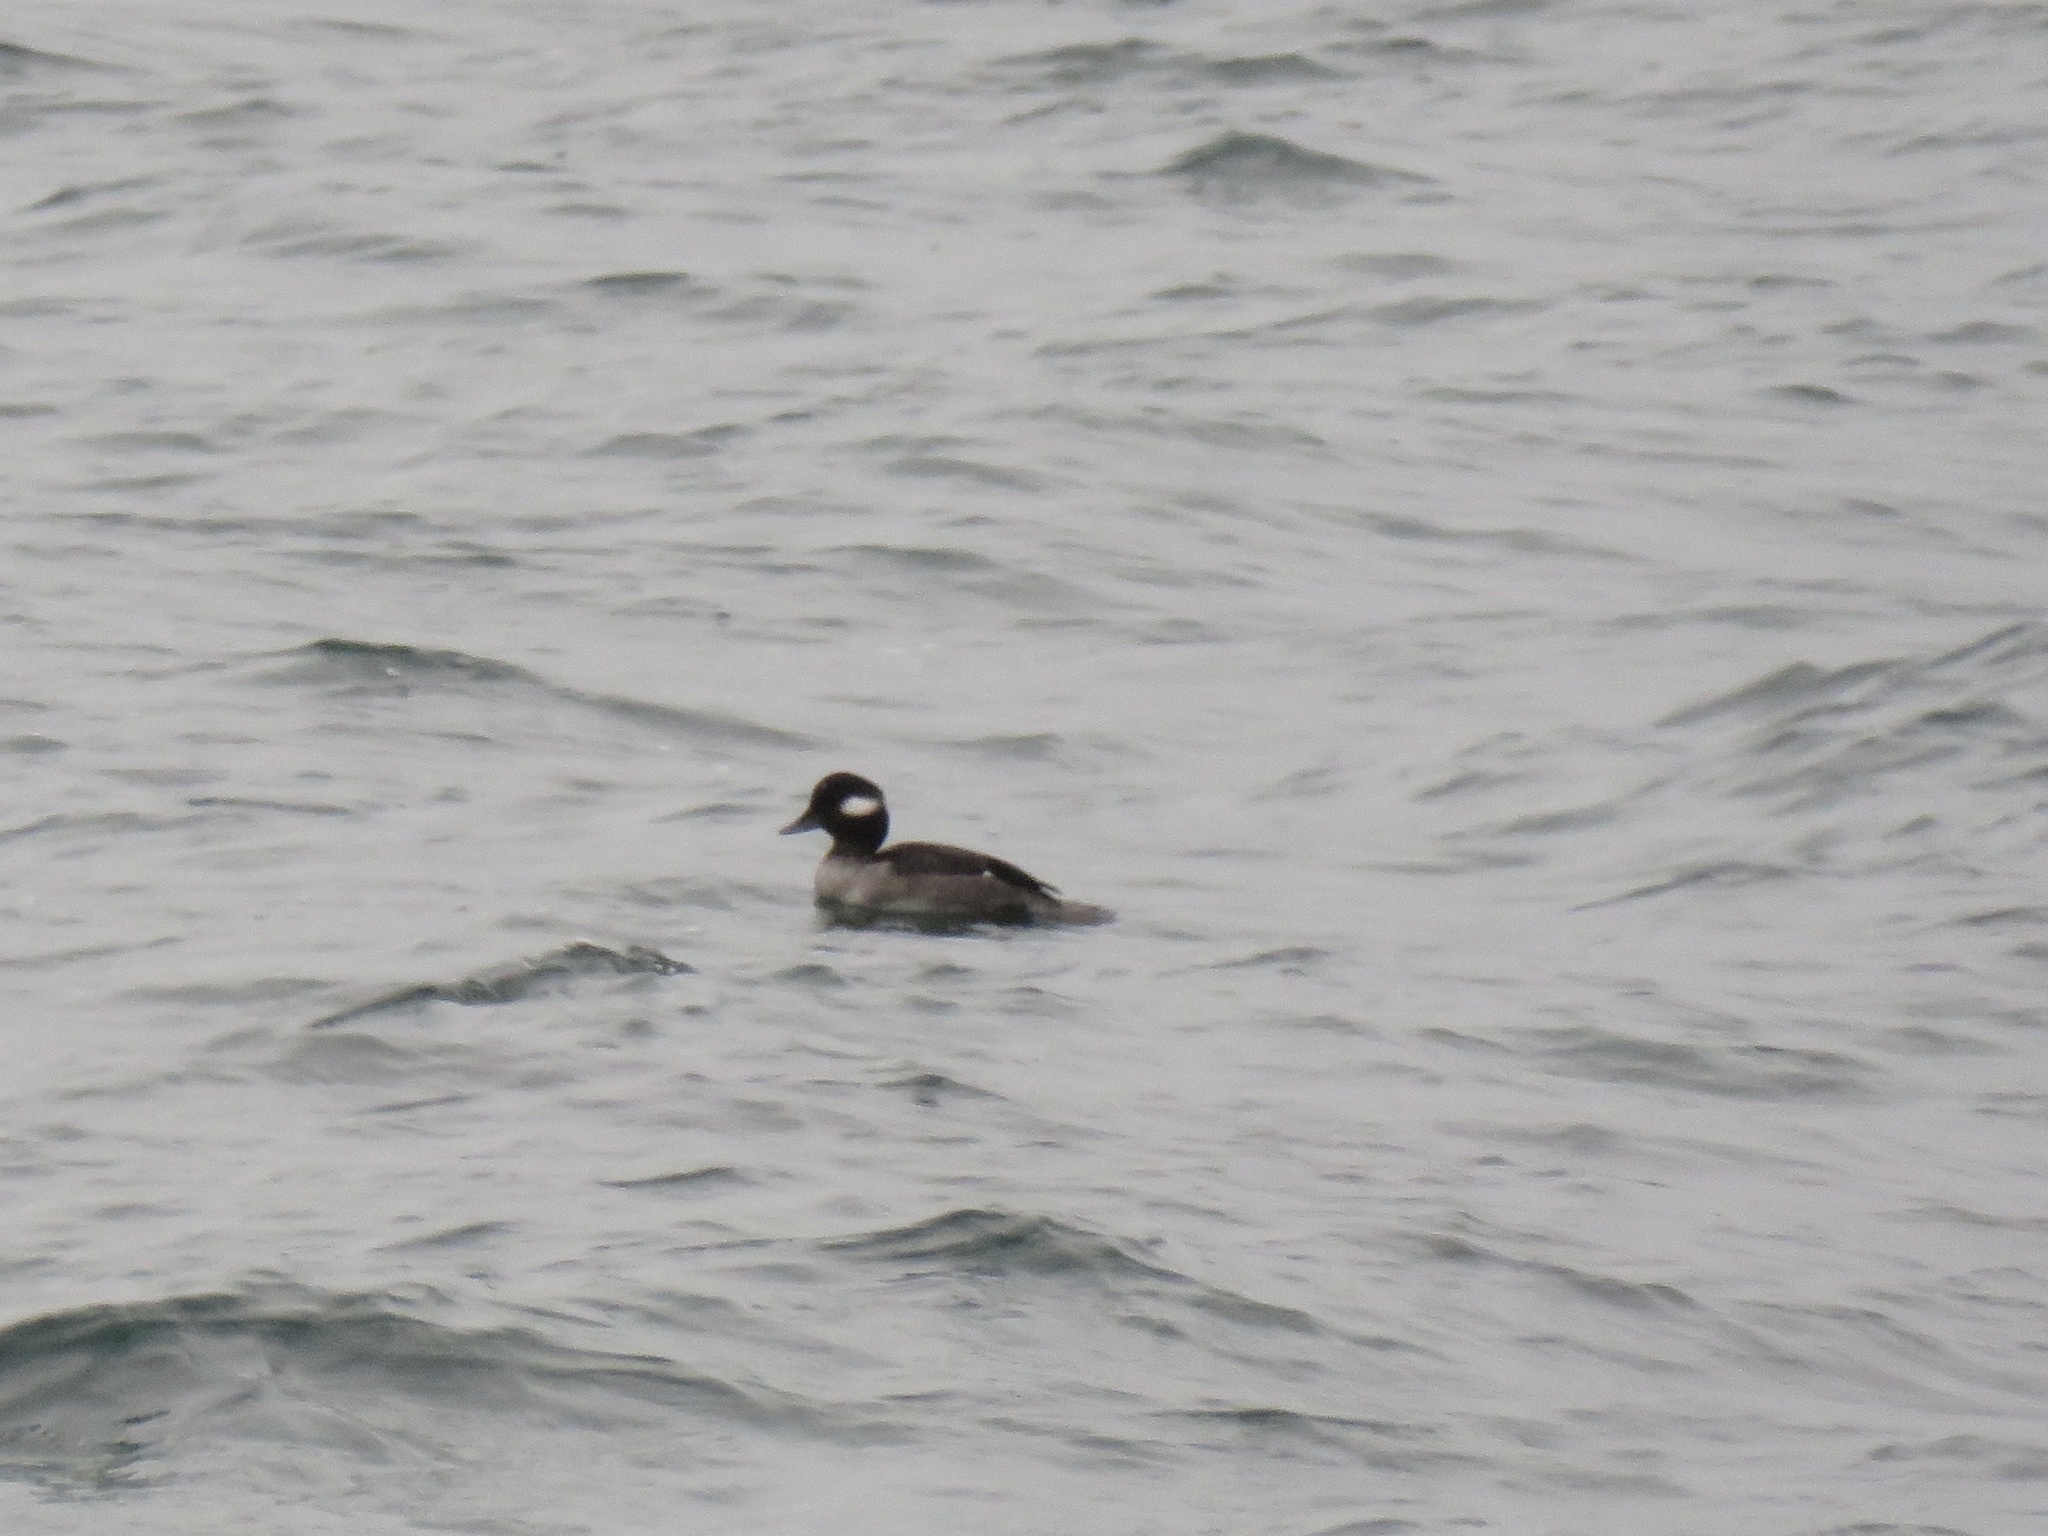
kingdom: Animalia
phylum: Chordata
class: Aves
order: Anseriformes
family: Anatidae
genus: Bucephala
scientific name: Bucephala albeola
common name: Bufflehead
